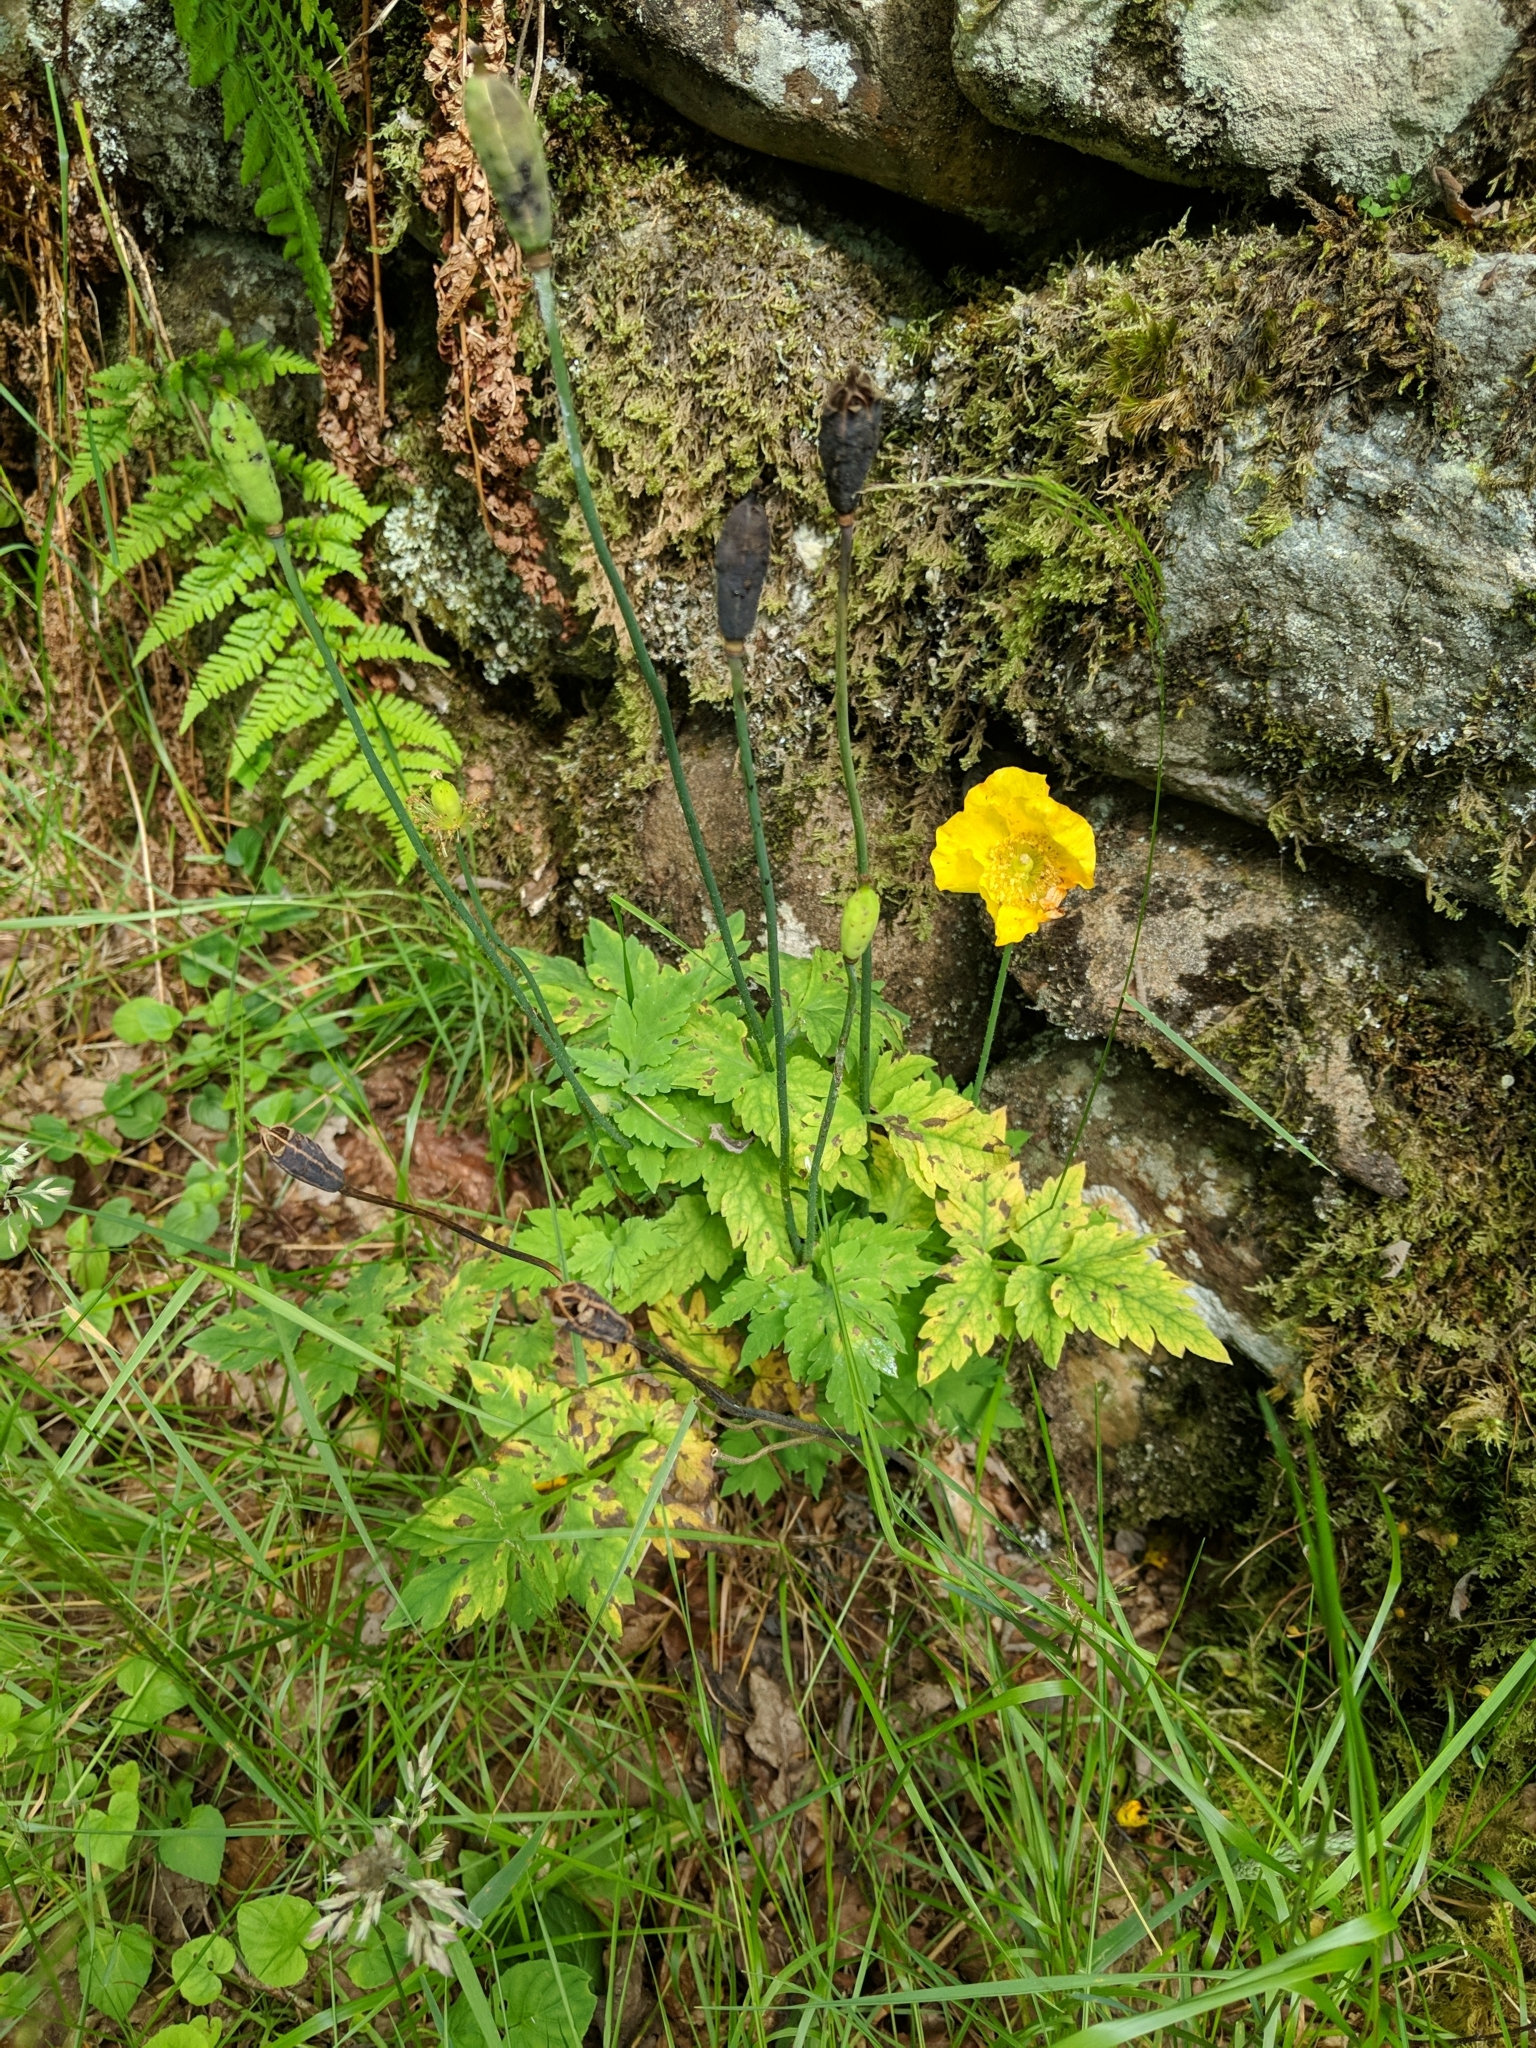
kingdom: Plantae
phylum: Tracheophyta
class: Magnoliopsida
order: Ranunculales
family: Papaveraceae
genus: Papaver
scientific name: Papaver cambricum
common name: Poppy
